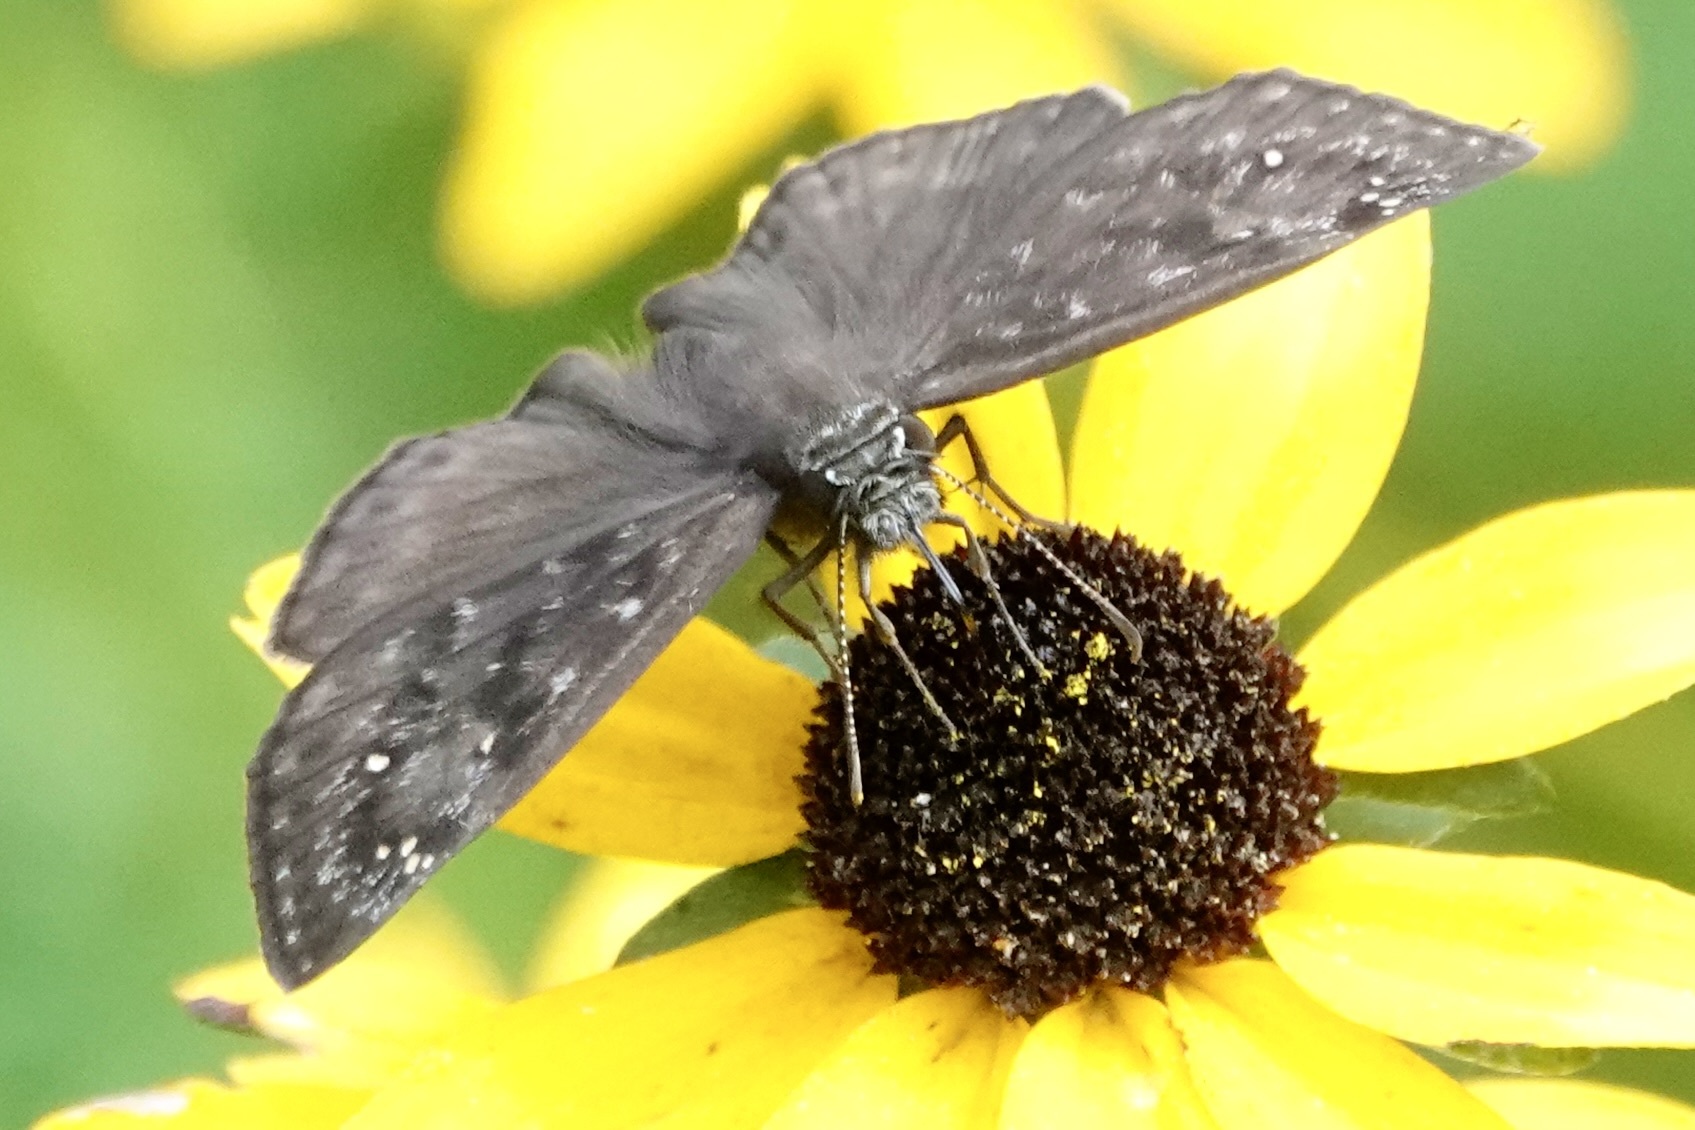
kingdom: Animalia
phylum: Arthropoda
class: Insecta
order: Lepidoptera
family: Hesperiidae
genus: Erynnis
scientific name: Erynnis horatius
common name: Horace's duskywing
